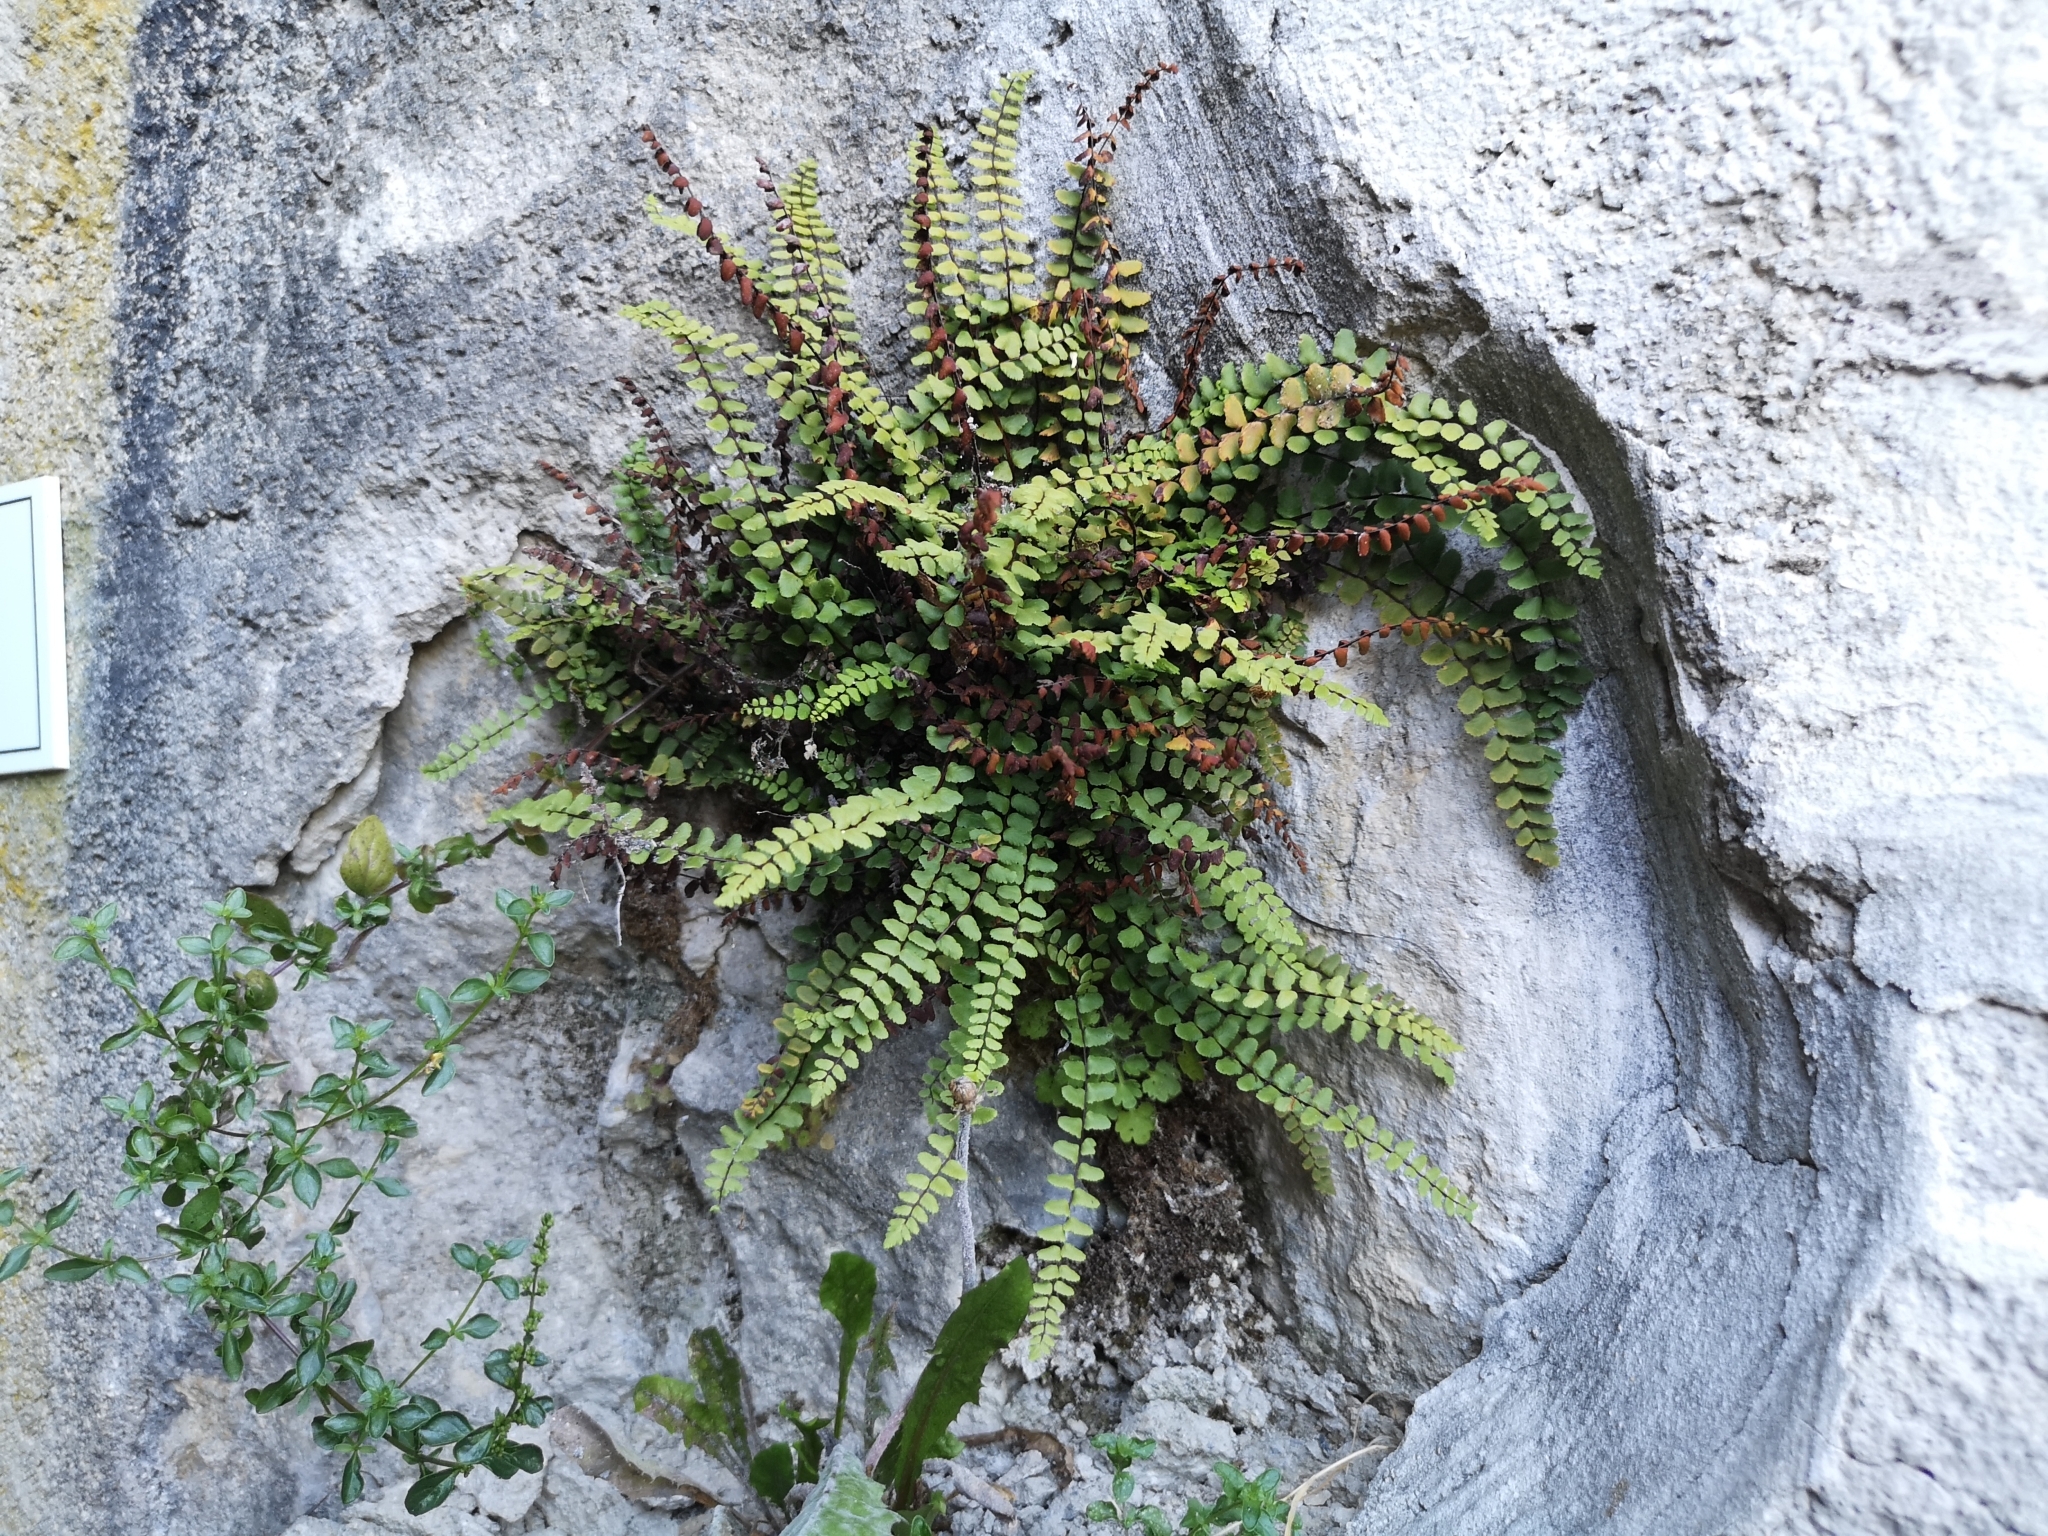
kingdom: Plantae
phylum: Tracheophyta
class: Polypodiopsida
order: Polypodiales
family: Aspleniaceae
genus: Asplenium
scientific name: Asplenium trichomanes
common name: Maidenhair spleenwort
